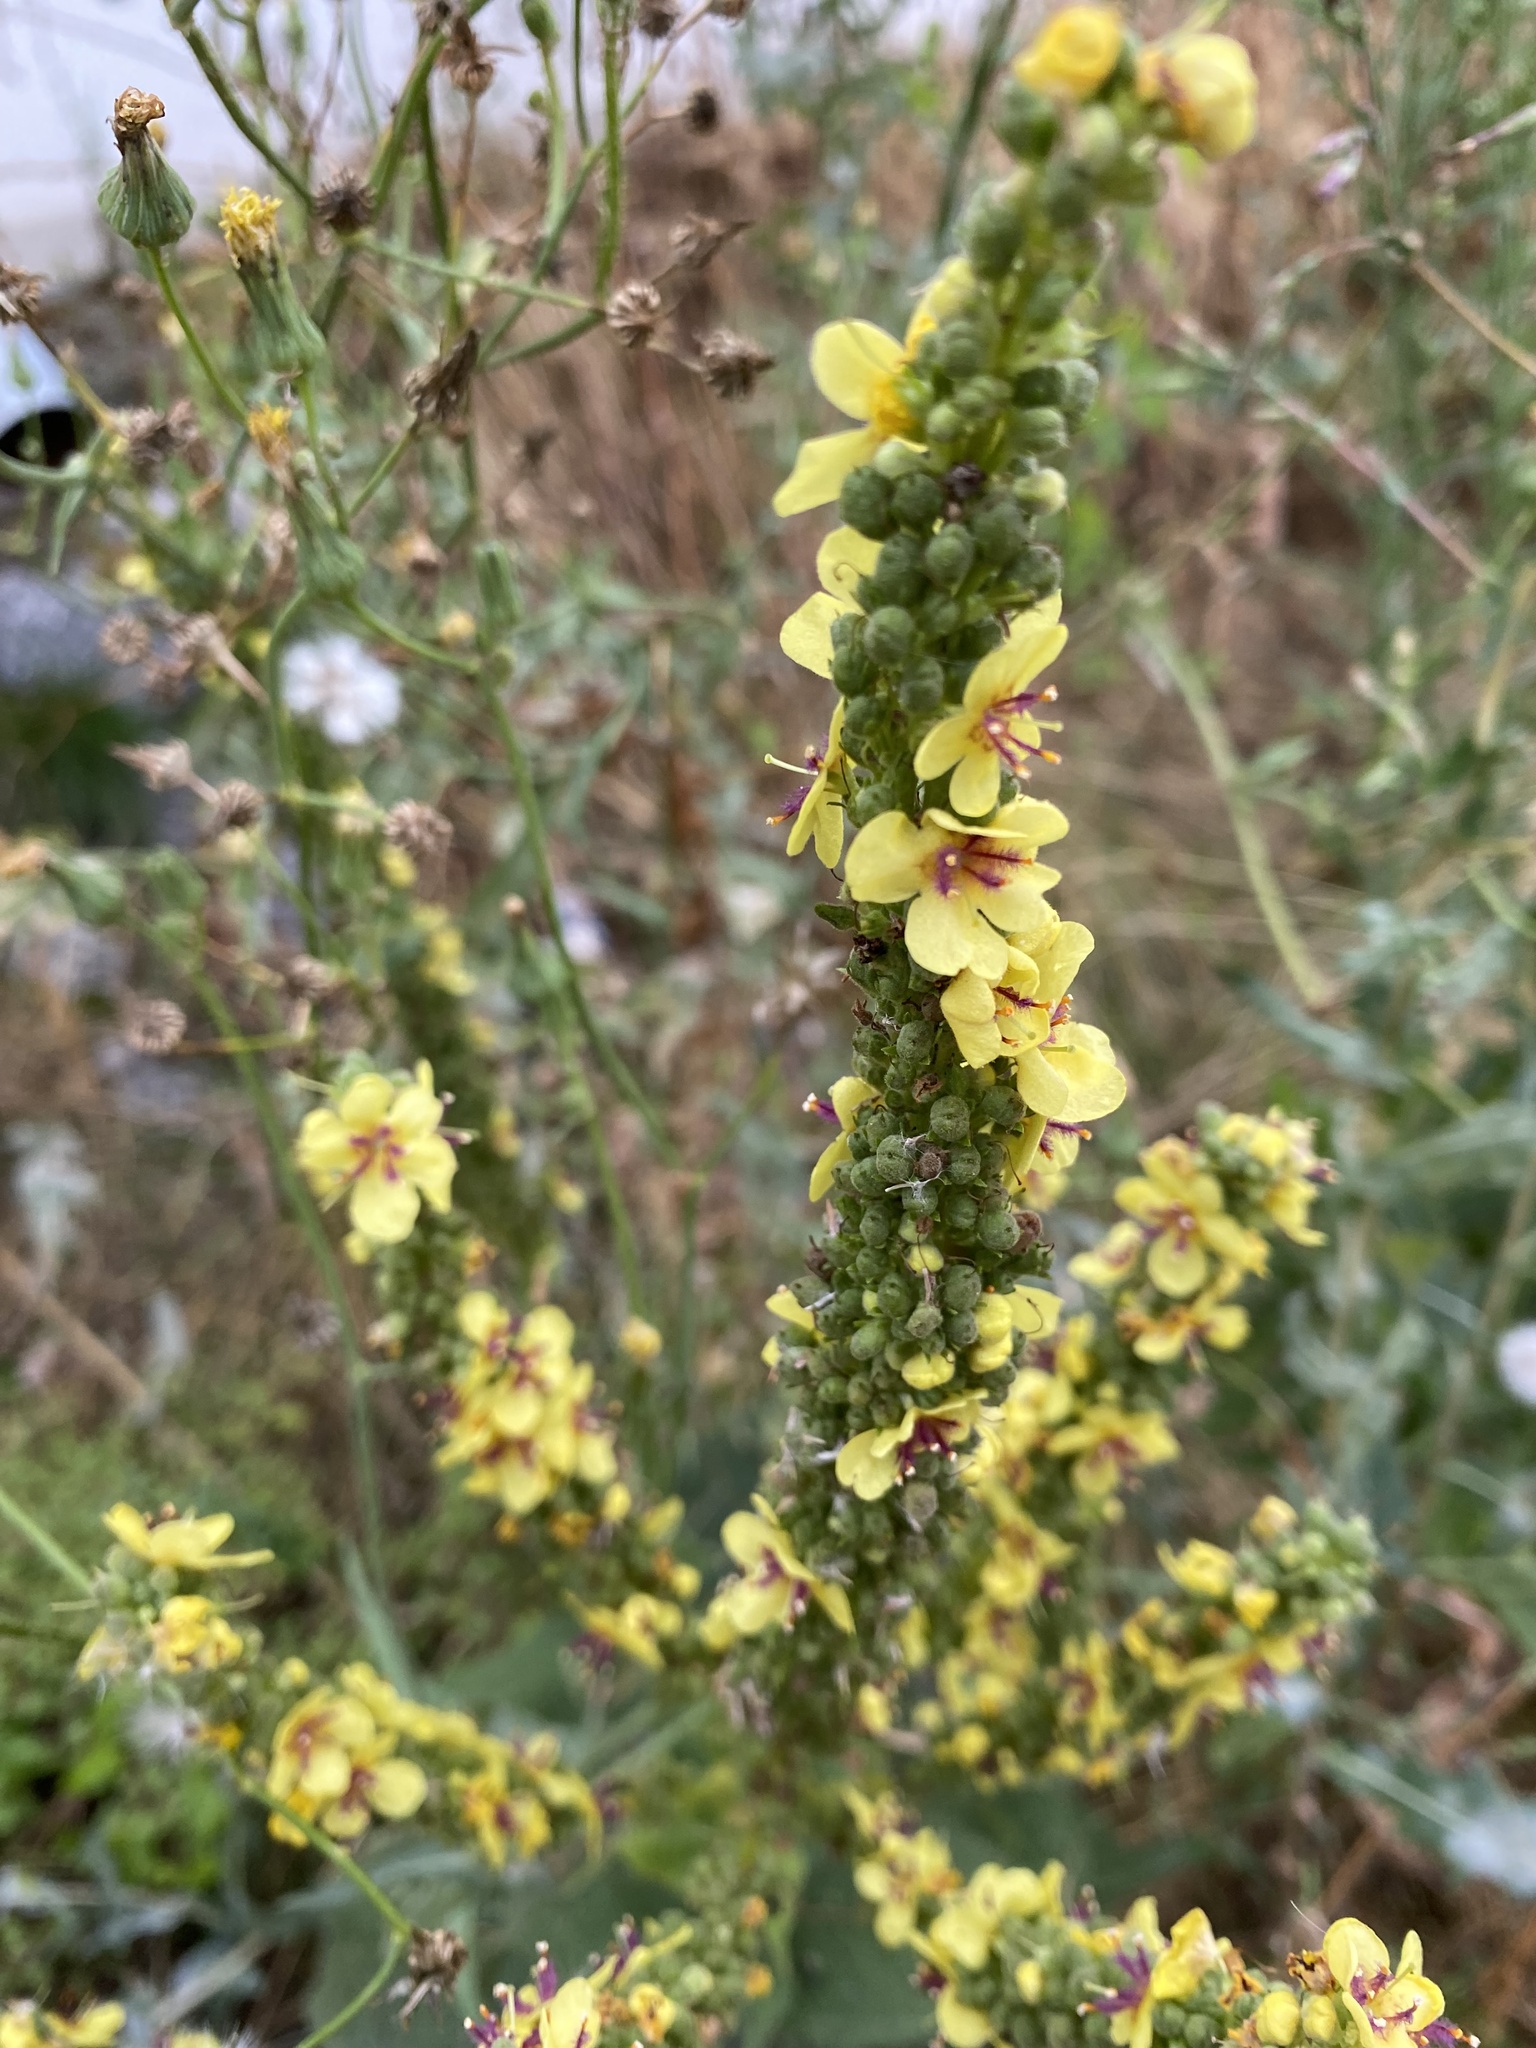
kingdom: Plantae
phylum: Tracheophyta
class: Magnoliopsida
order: Lamiales
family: Scrophulariaceae
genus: Verbascum
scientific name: Verbascum nigrum
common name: Dark mullein
